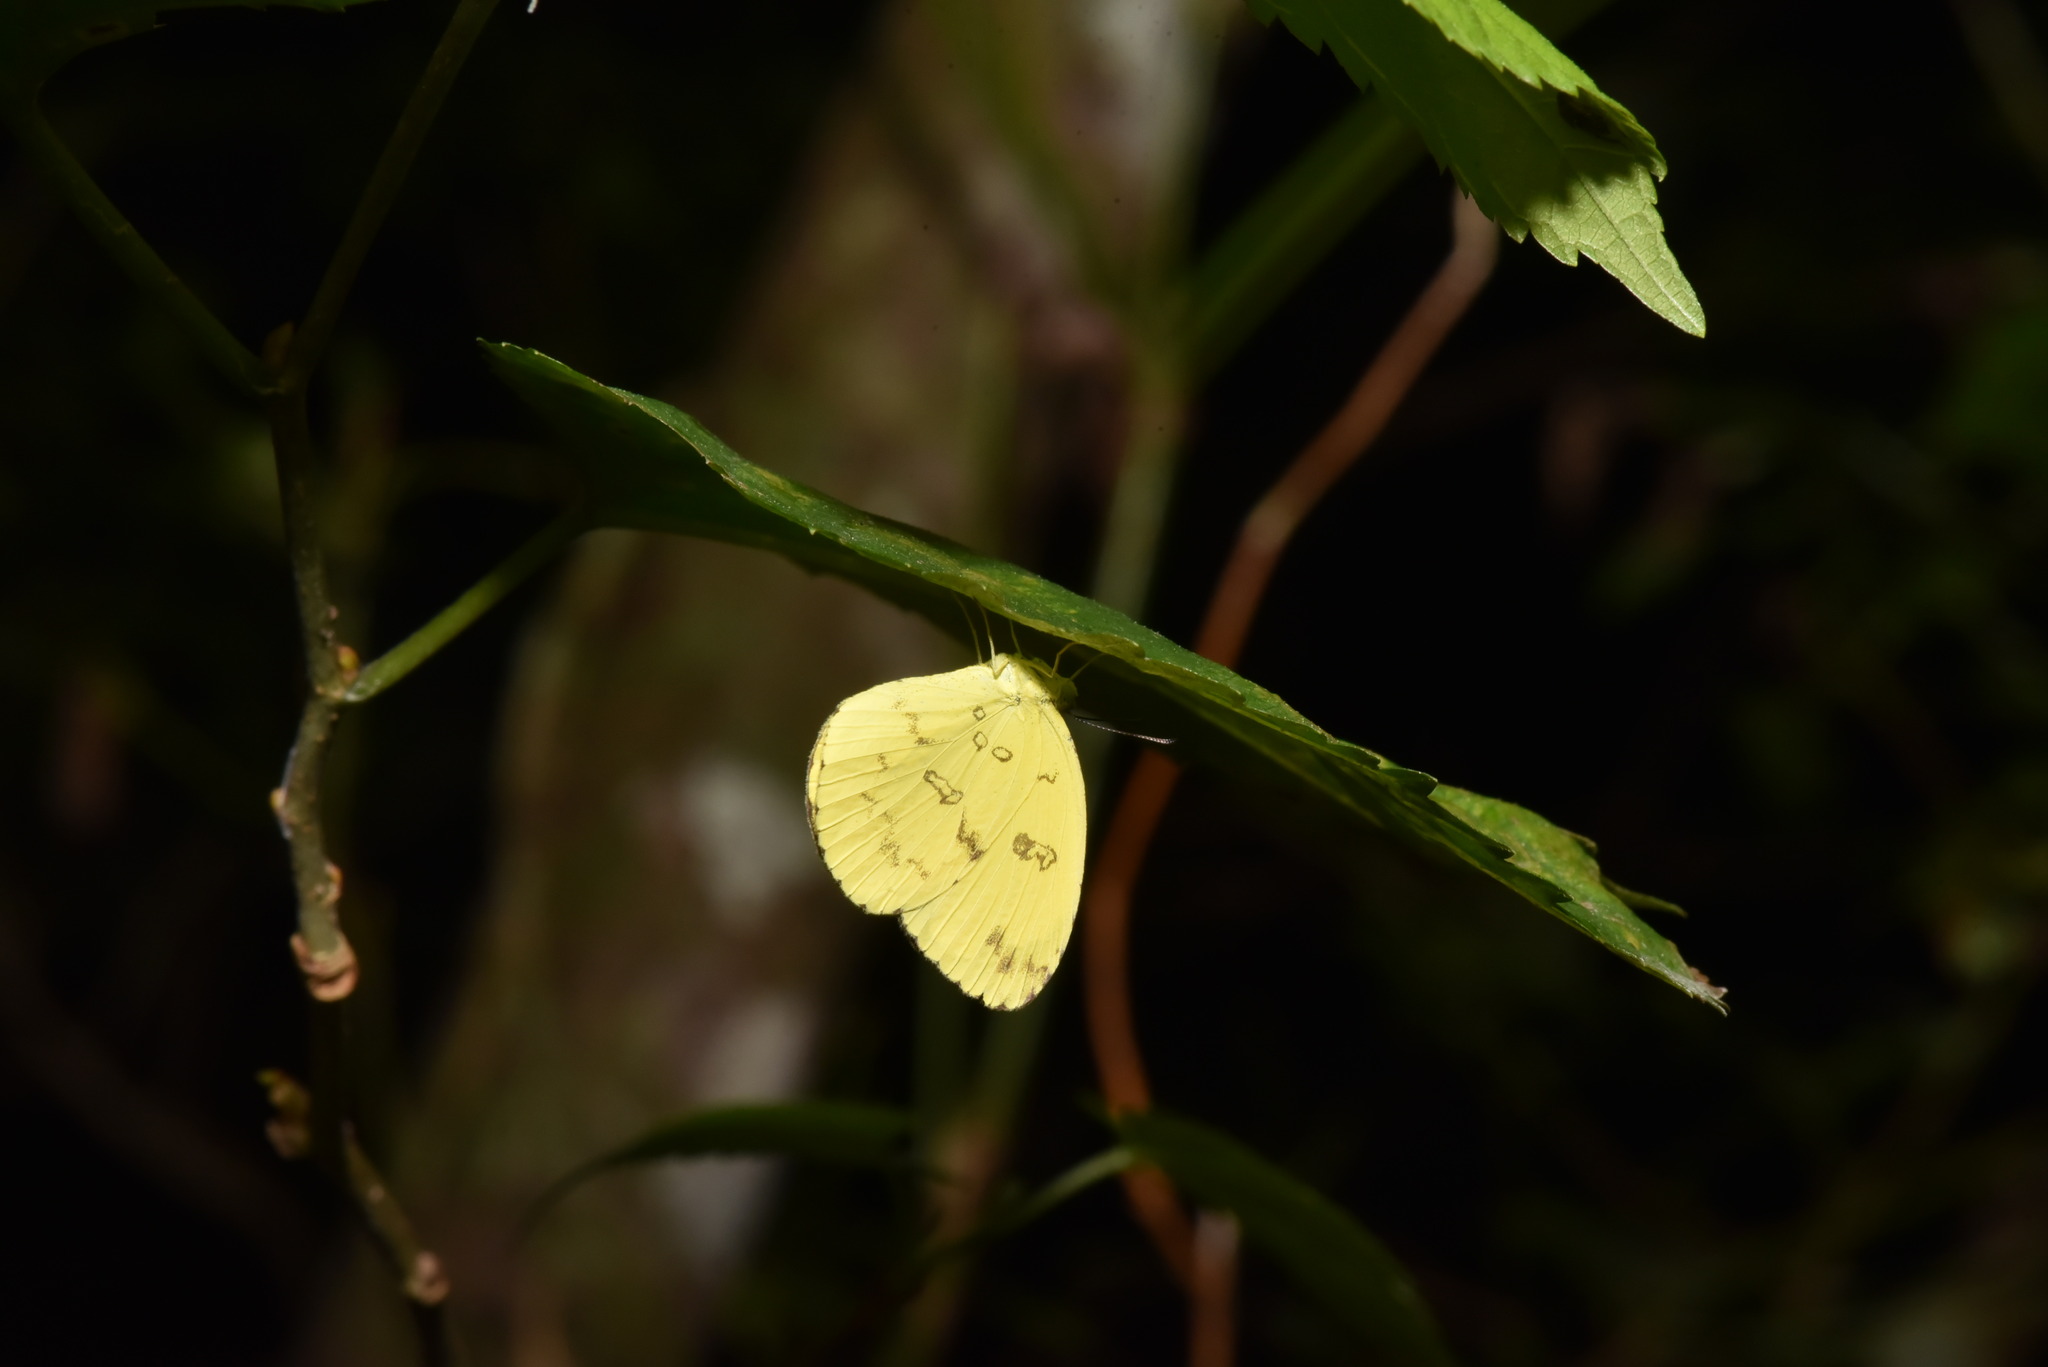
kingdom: Animalia
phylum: Arthropoda
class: Insecta
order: Lepidoptera
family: Pieridae
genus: Eurema
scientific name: Eurema andersoni
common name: One-spot yellow grass
